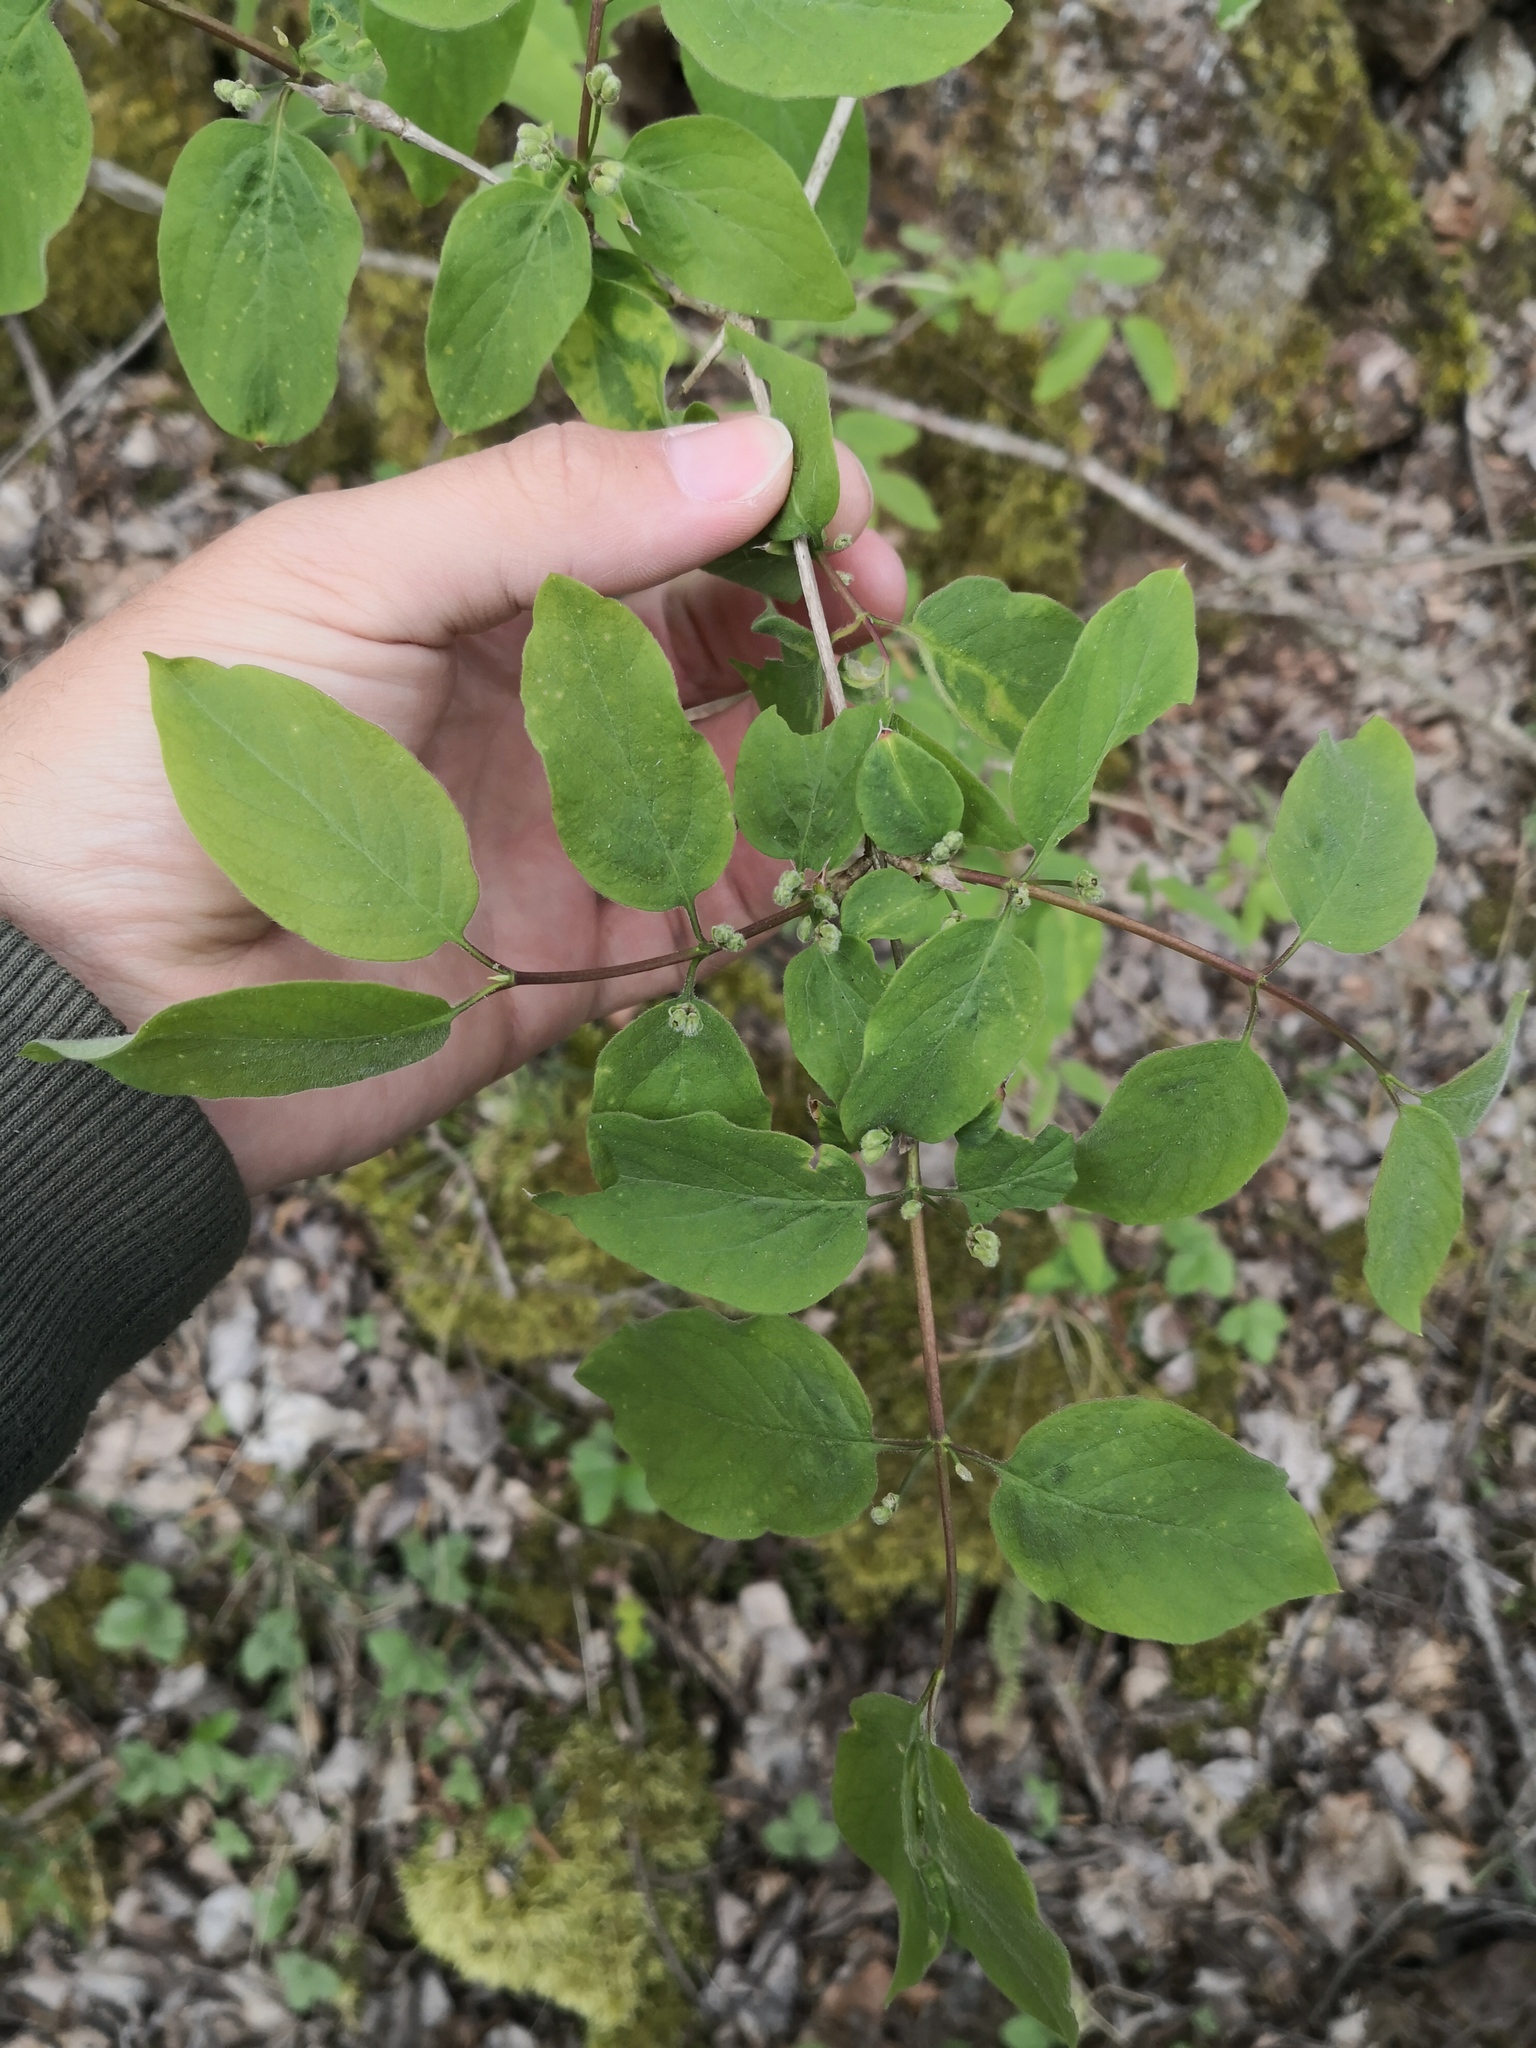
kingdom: Plantae
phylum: Tracheophyta
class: Magnoliopsida
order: Dipsacales
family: Caprifoliaceae
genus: Lonicera
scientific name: Lonicera xylosteum
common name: Fly honeysuckle
